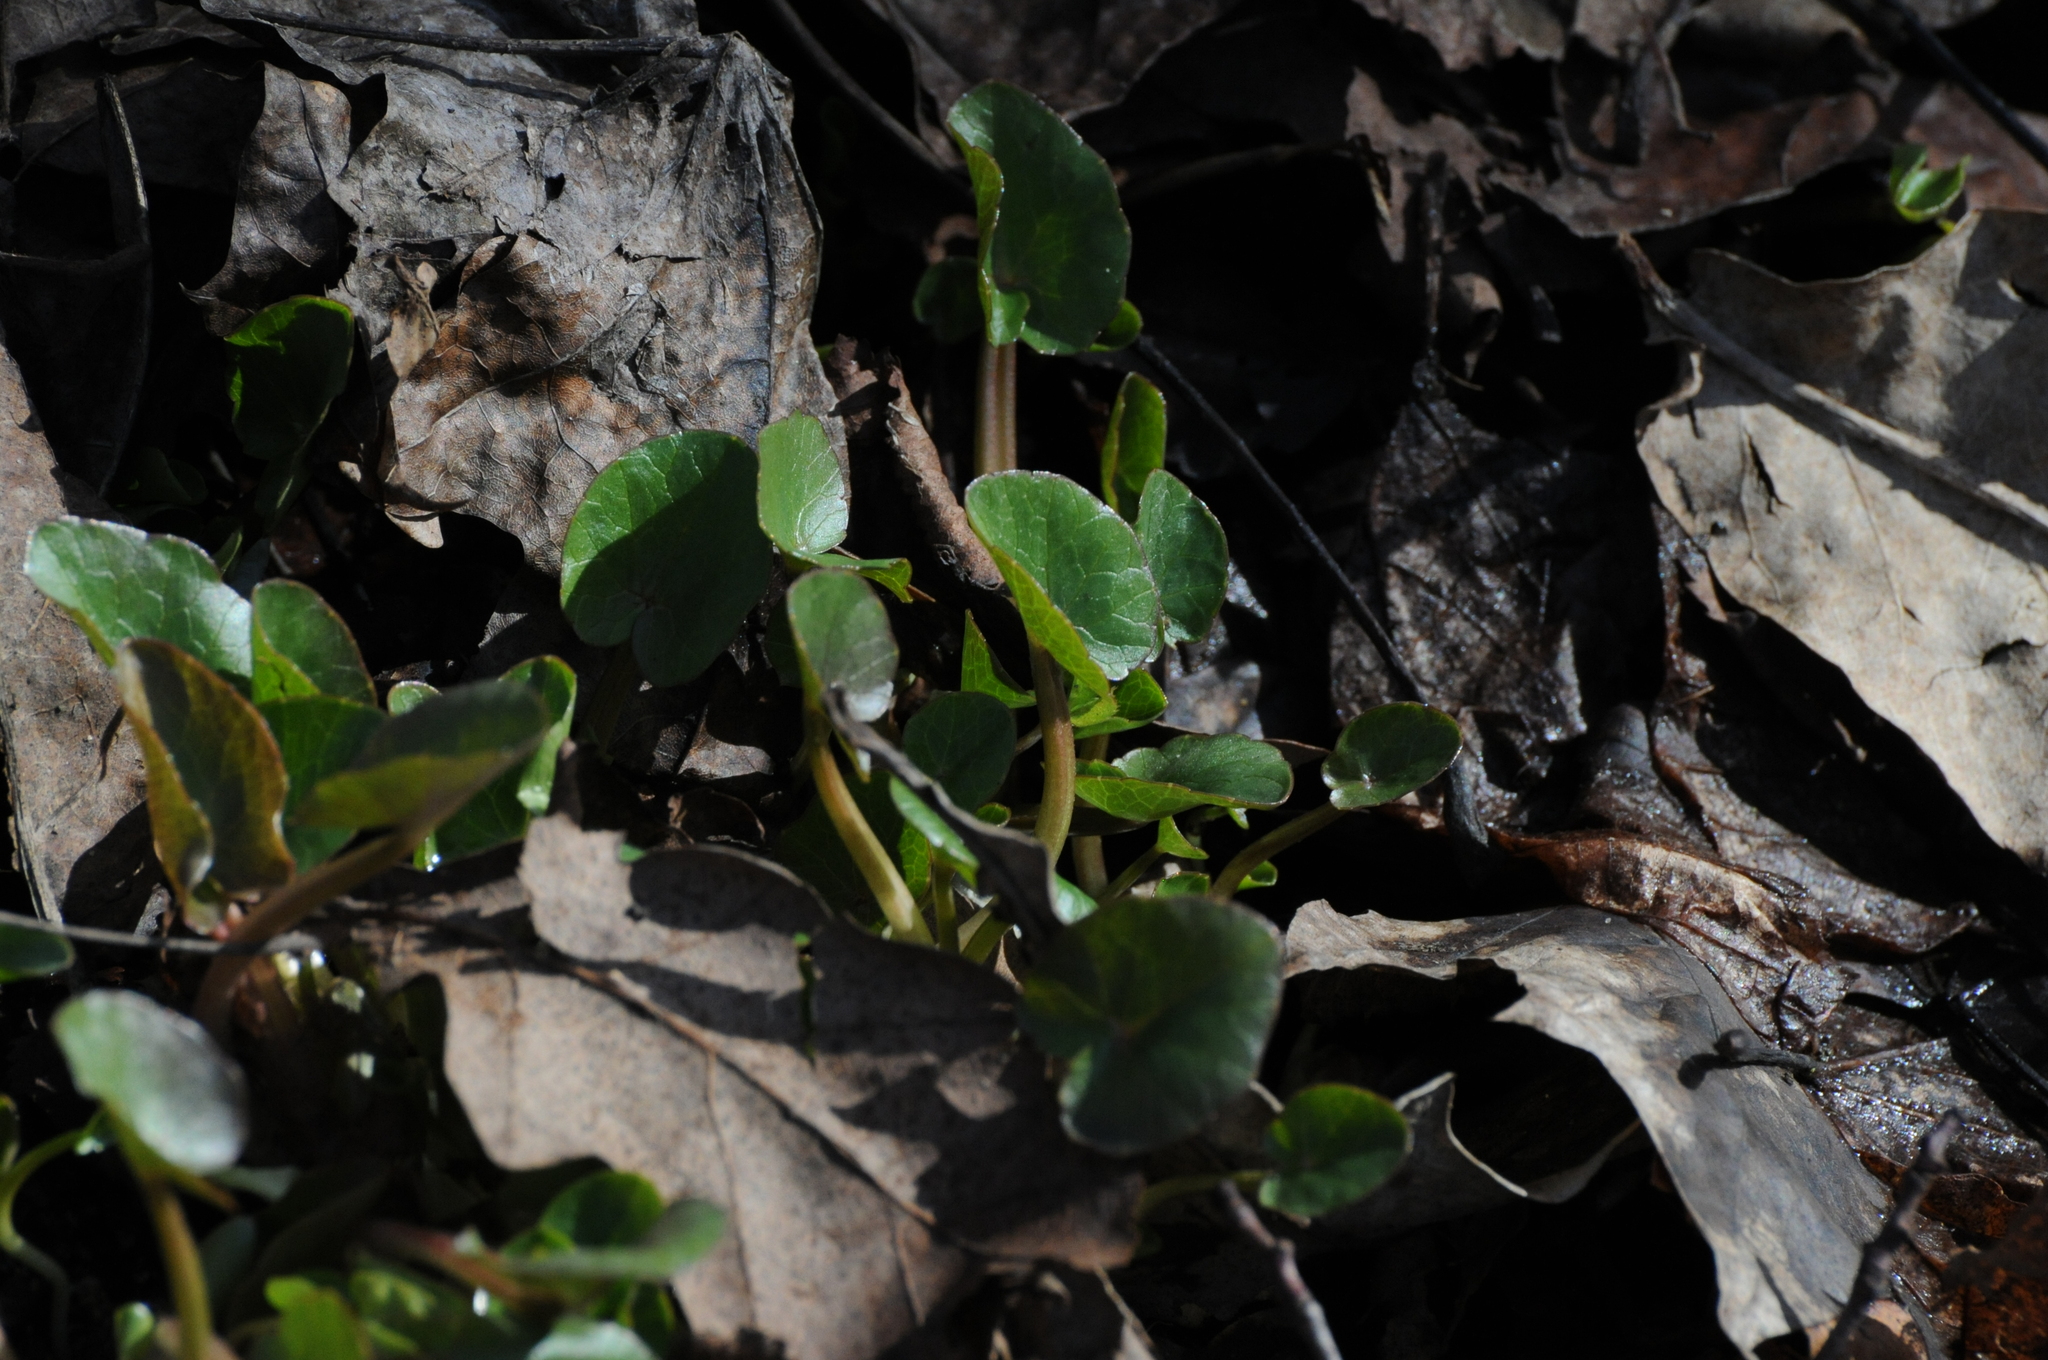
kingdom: Plantae
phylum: Tracheophyta
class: Magnoliopsida
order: Ranunculales
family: Ranunculaceae
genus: Ficaria
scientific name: Ficaria verna
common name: Lesser celandine
